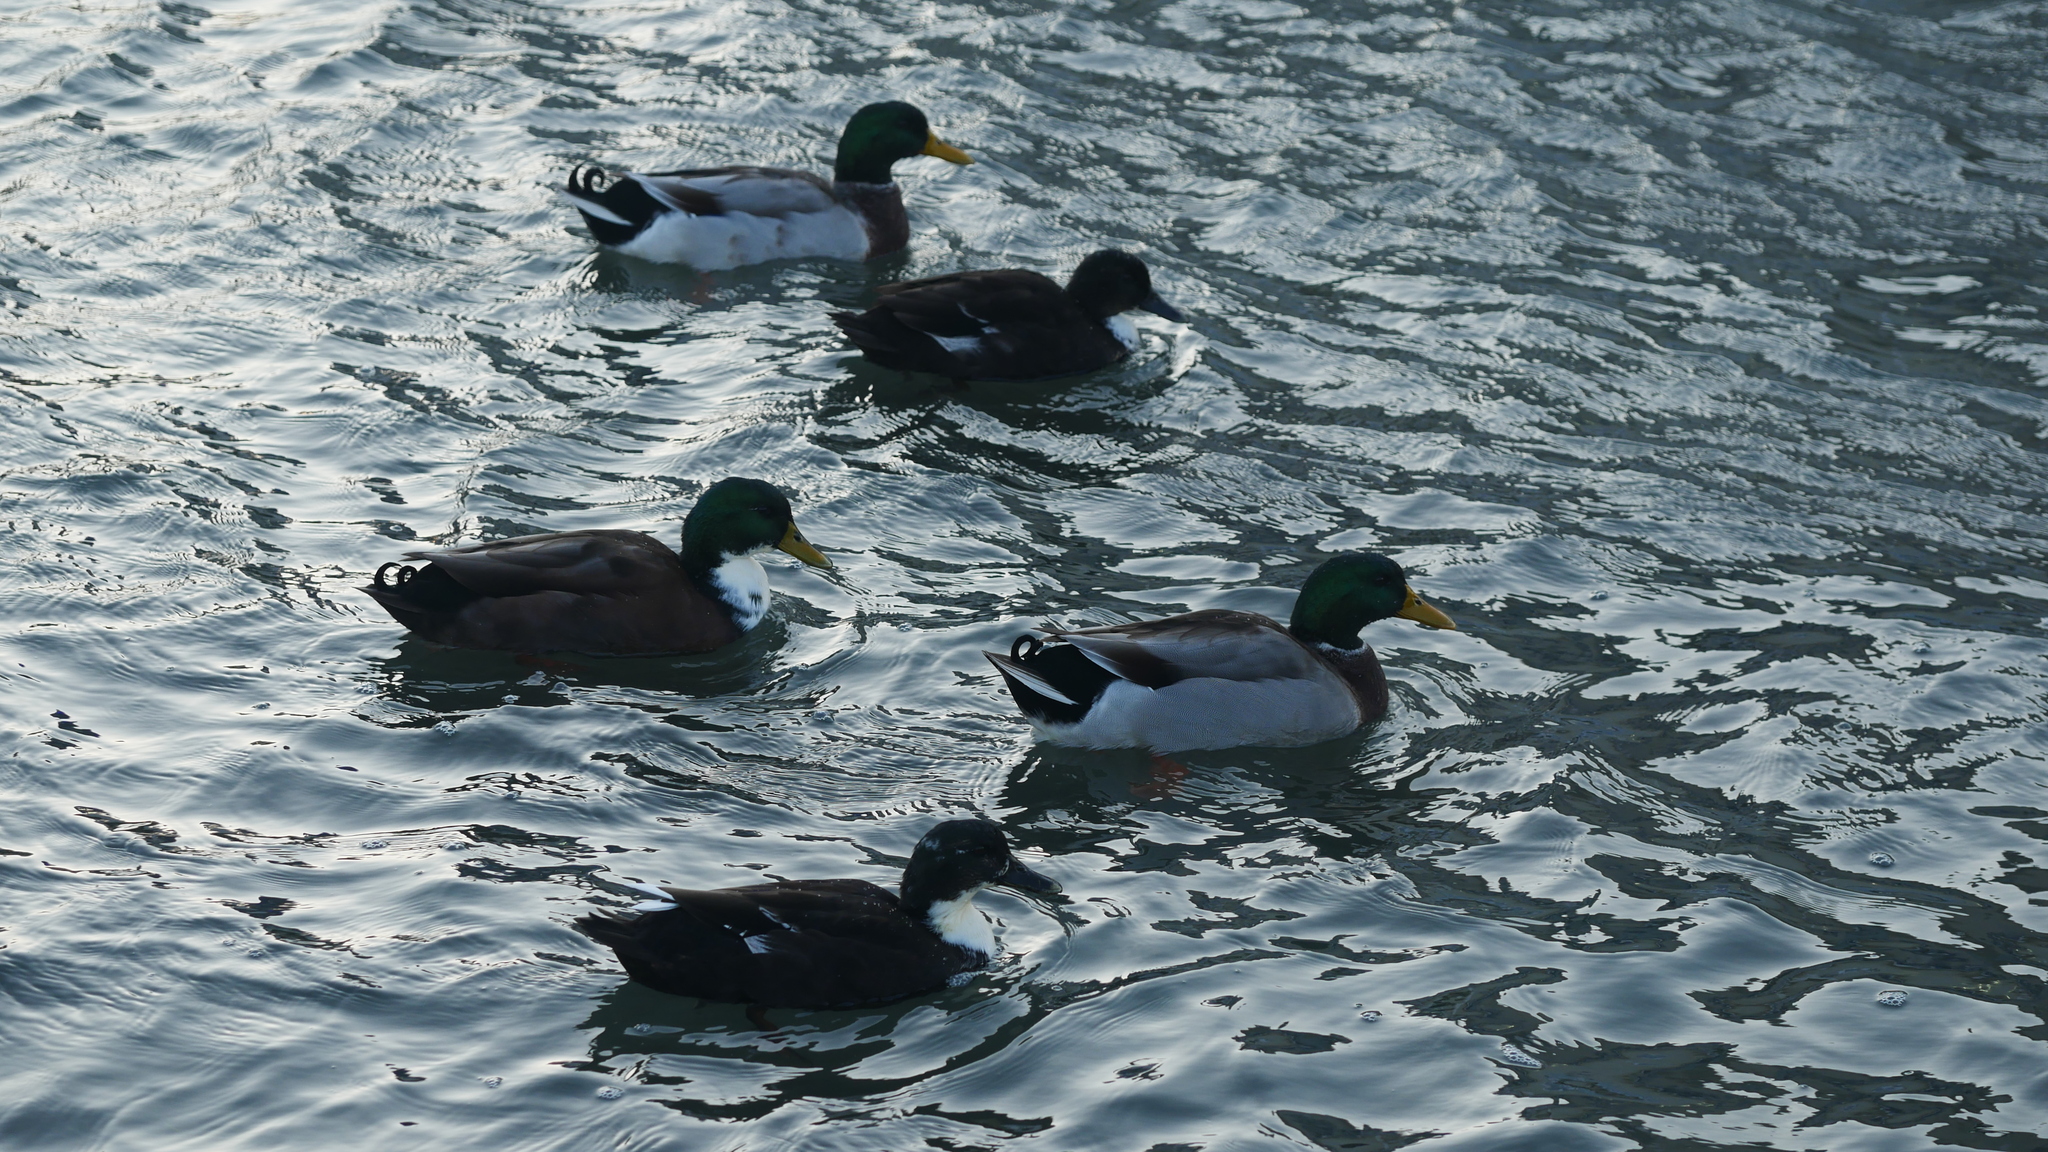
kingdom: Animalia
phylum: Chordata
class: Aves
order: Anseriformes
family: Anatidae
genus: Anas
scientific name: Anas platyrhynchos
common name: Mallard
